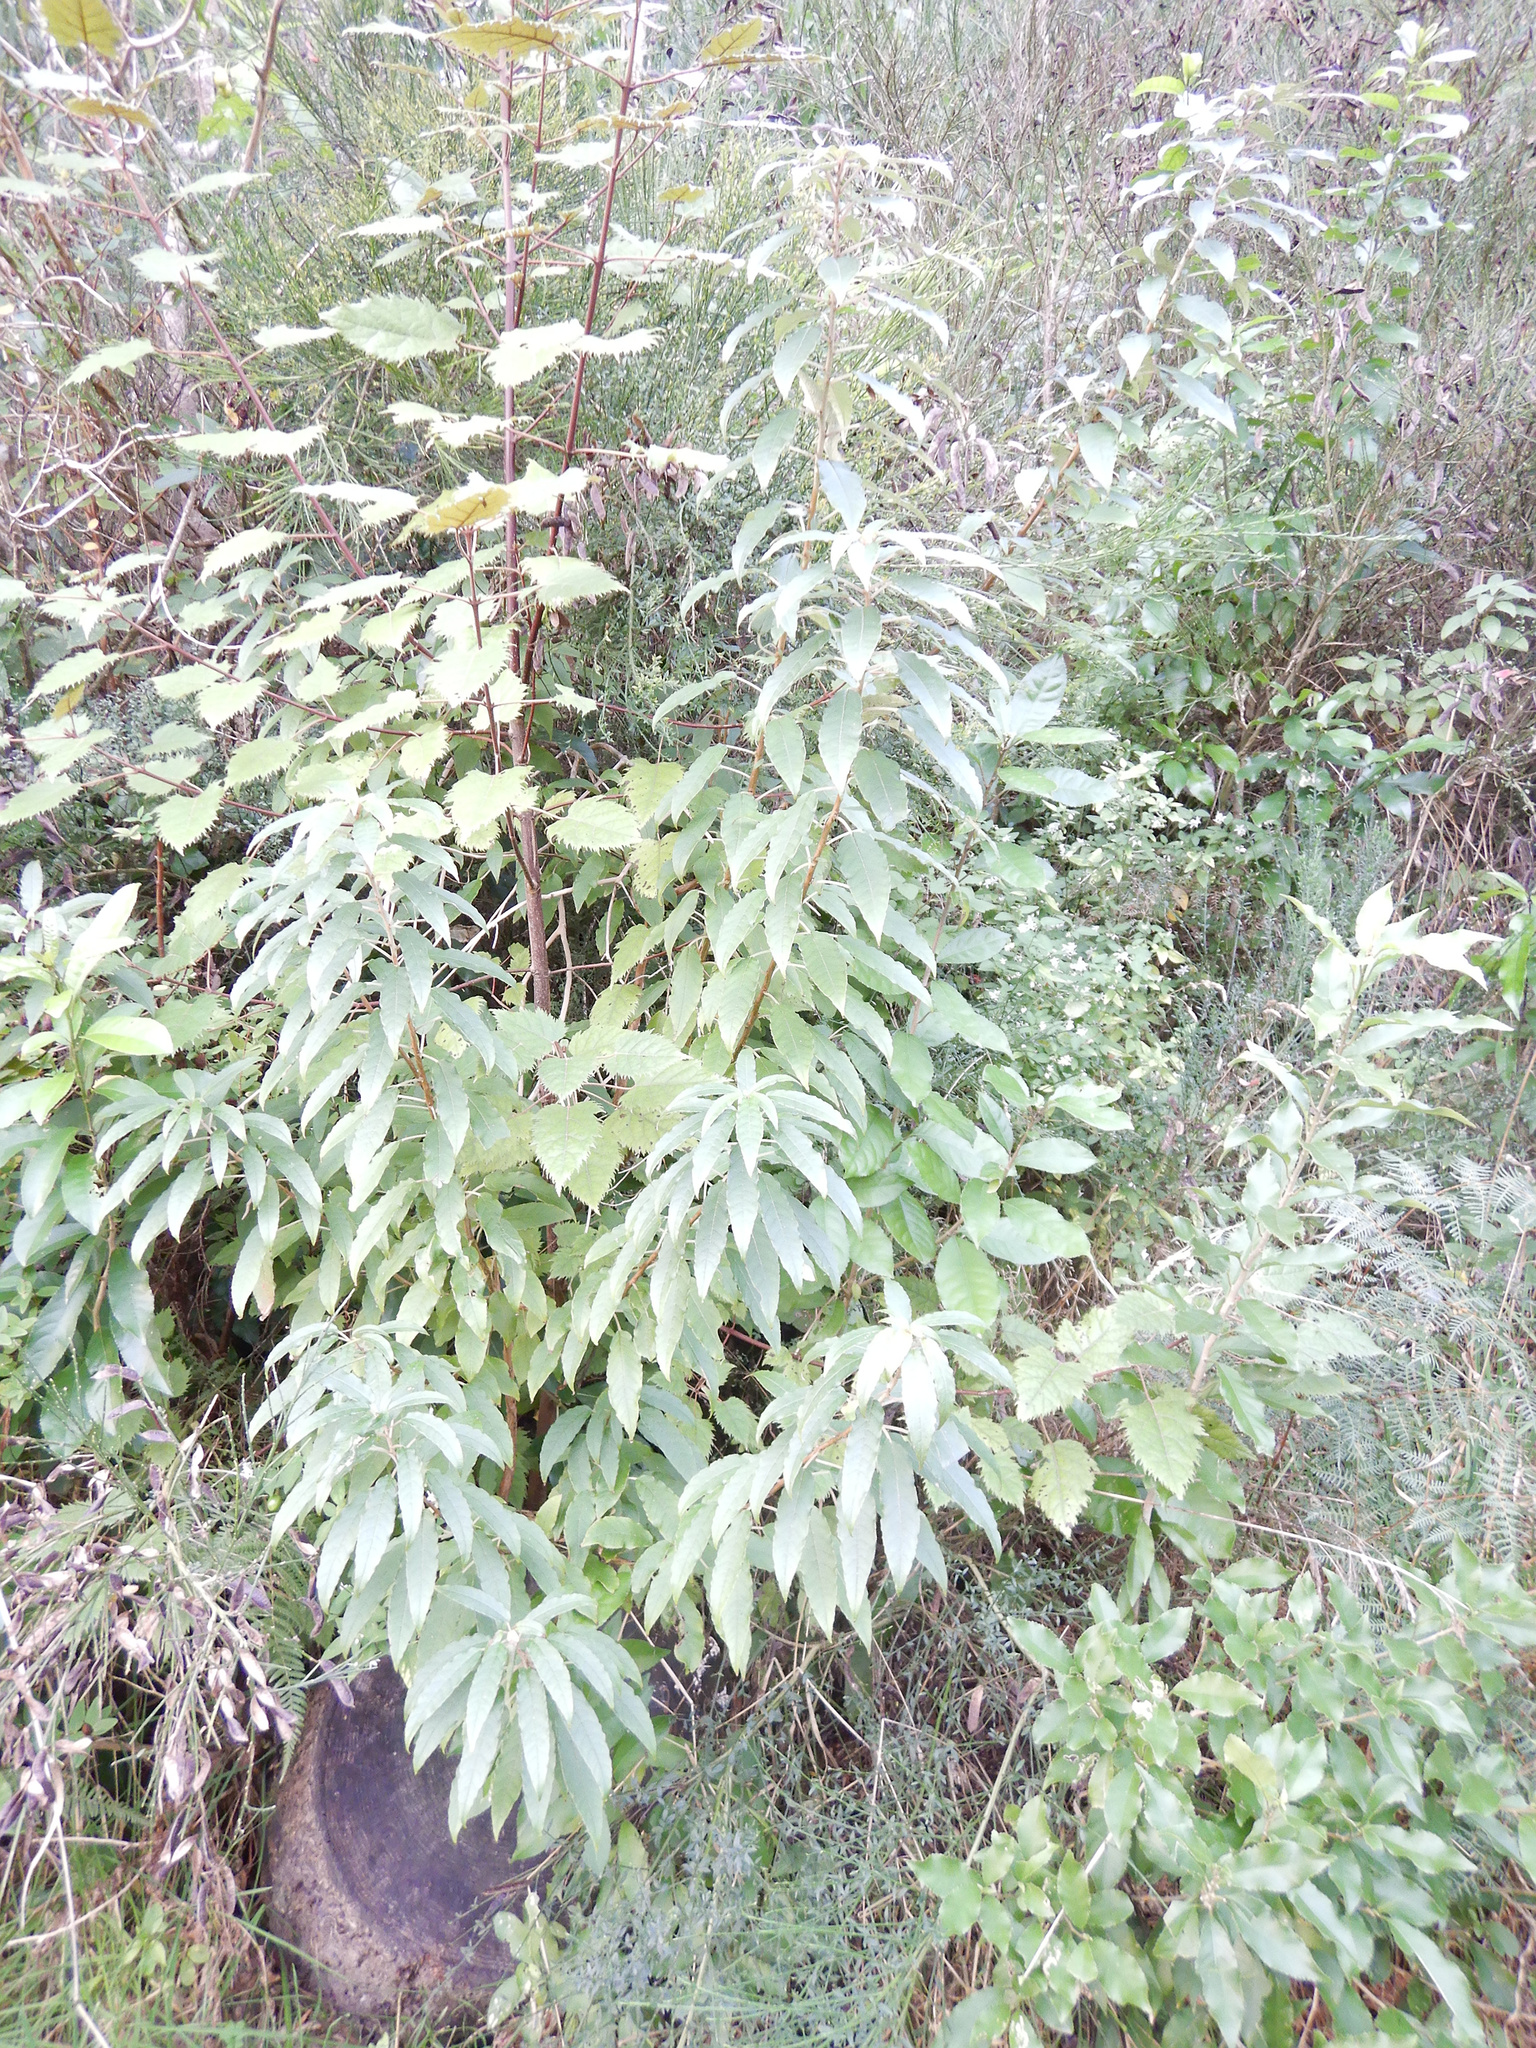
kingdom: Plantae
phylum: Tracheophyta
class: Magnoliopsida
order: Oxalidales
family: Elaeocarpaceae
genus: Aristotelia
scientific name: Aristotelia serrata
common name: New zealand wineberry
